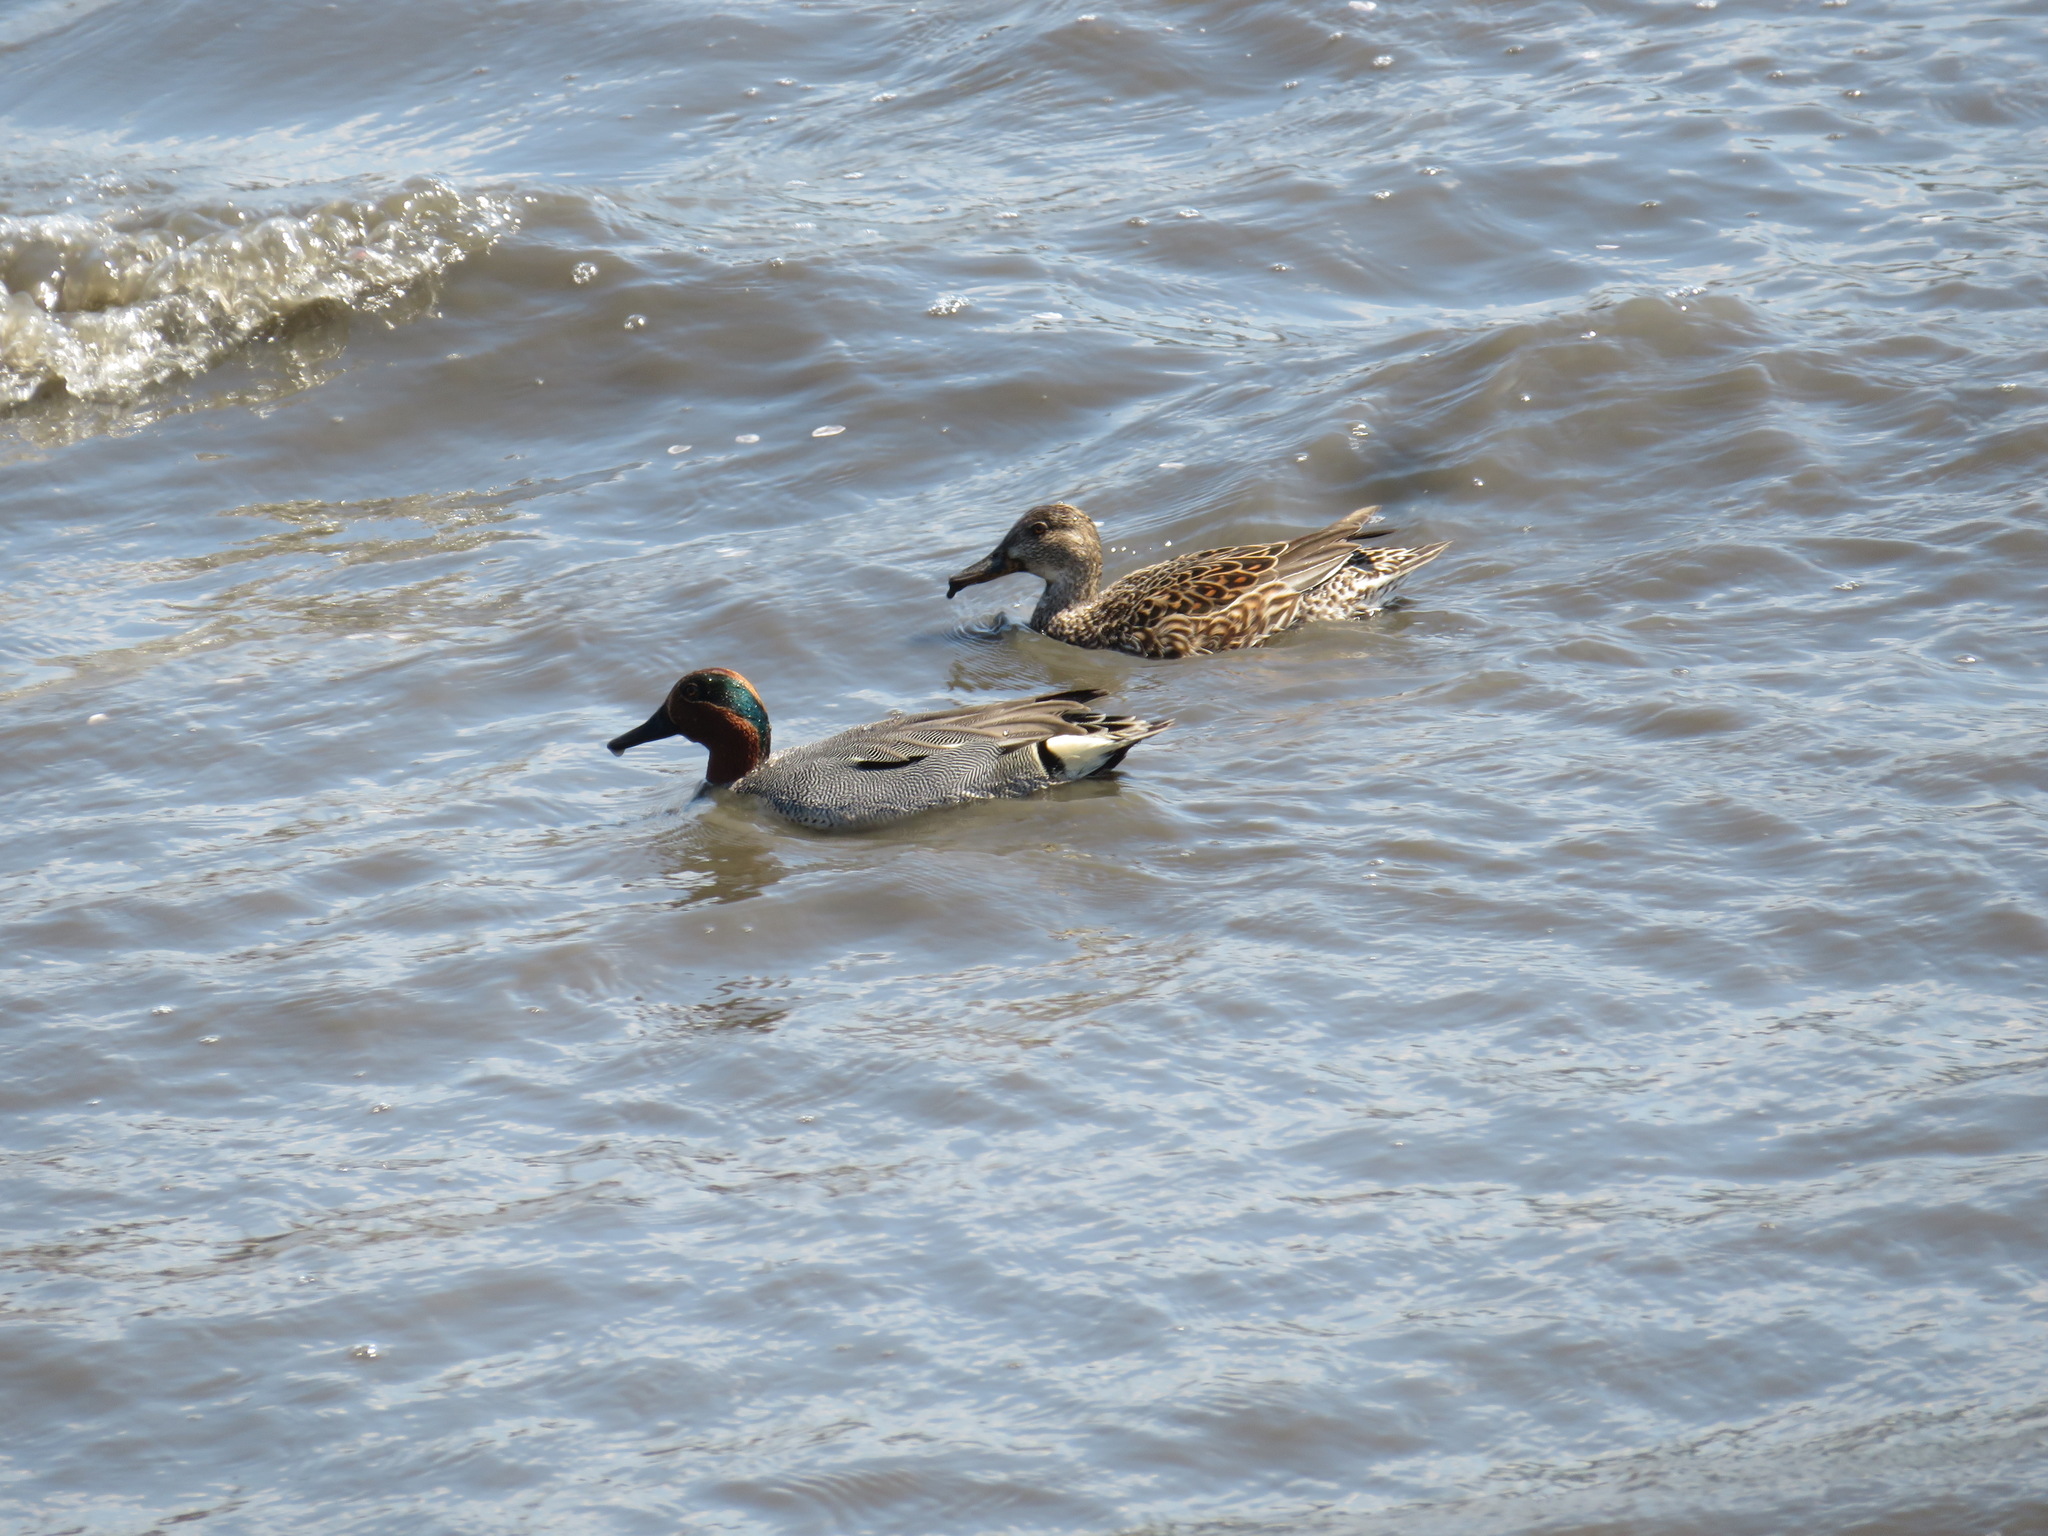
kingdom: Animalia
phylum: Chordata
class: Aves
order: Anseriformes
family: Anatidae
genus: Anas
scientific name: Anas crecca
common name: Eurasian teal
